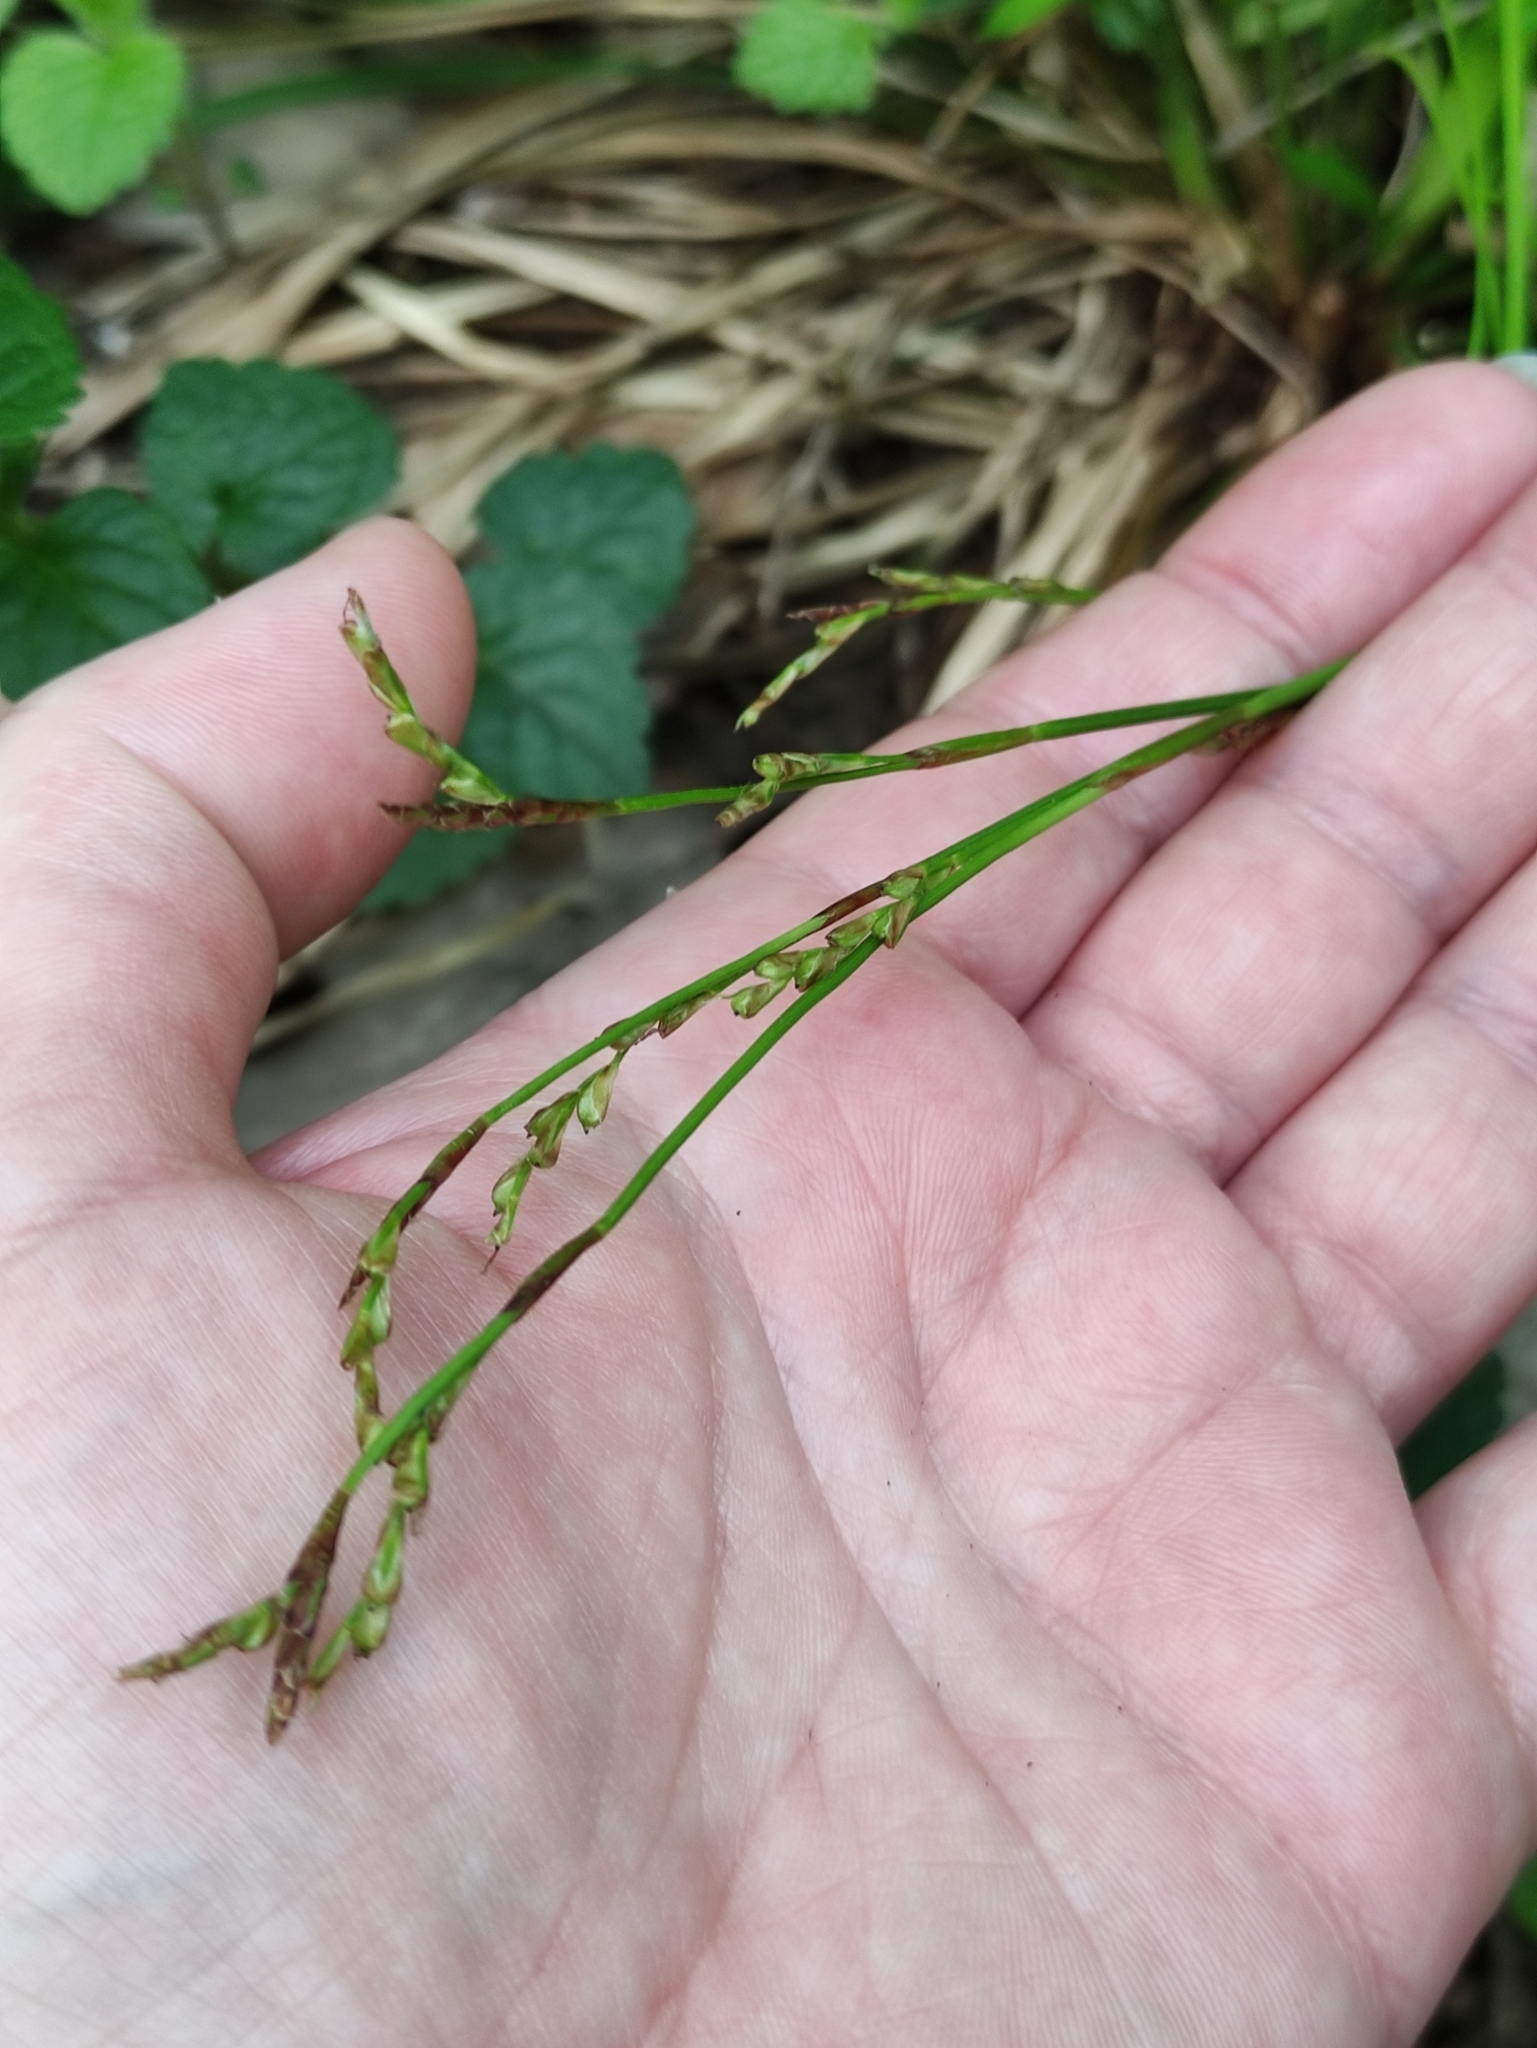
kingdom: Plantae
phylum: Tracheophyta
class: Liliopsida
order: Poales
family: Cyperaceae
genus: Carex
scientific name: Carex digitata
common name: Fingered sedge
